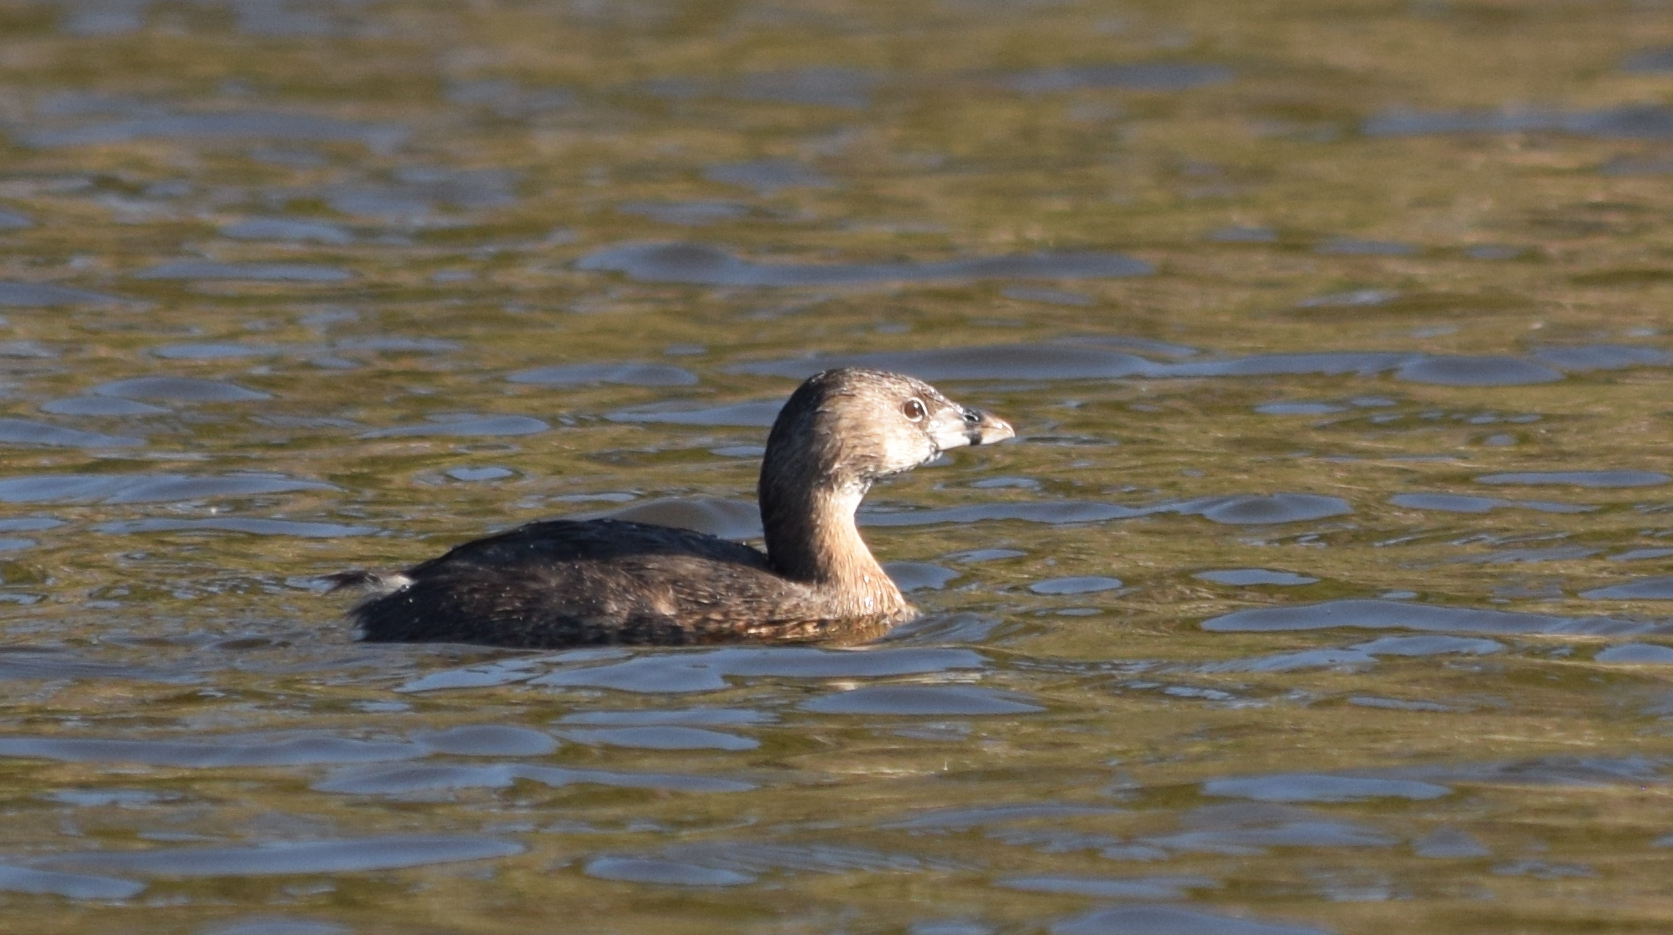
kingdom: Animalia
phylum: Chordata
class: Aves
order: Podicipediformes
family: Podicipedidae
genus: Podilymbus
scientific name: Podilymbus podiceps
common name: Pied-billed grebe
